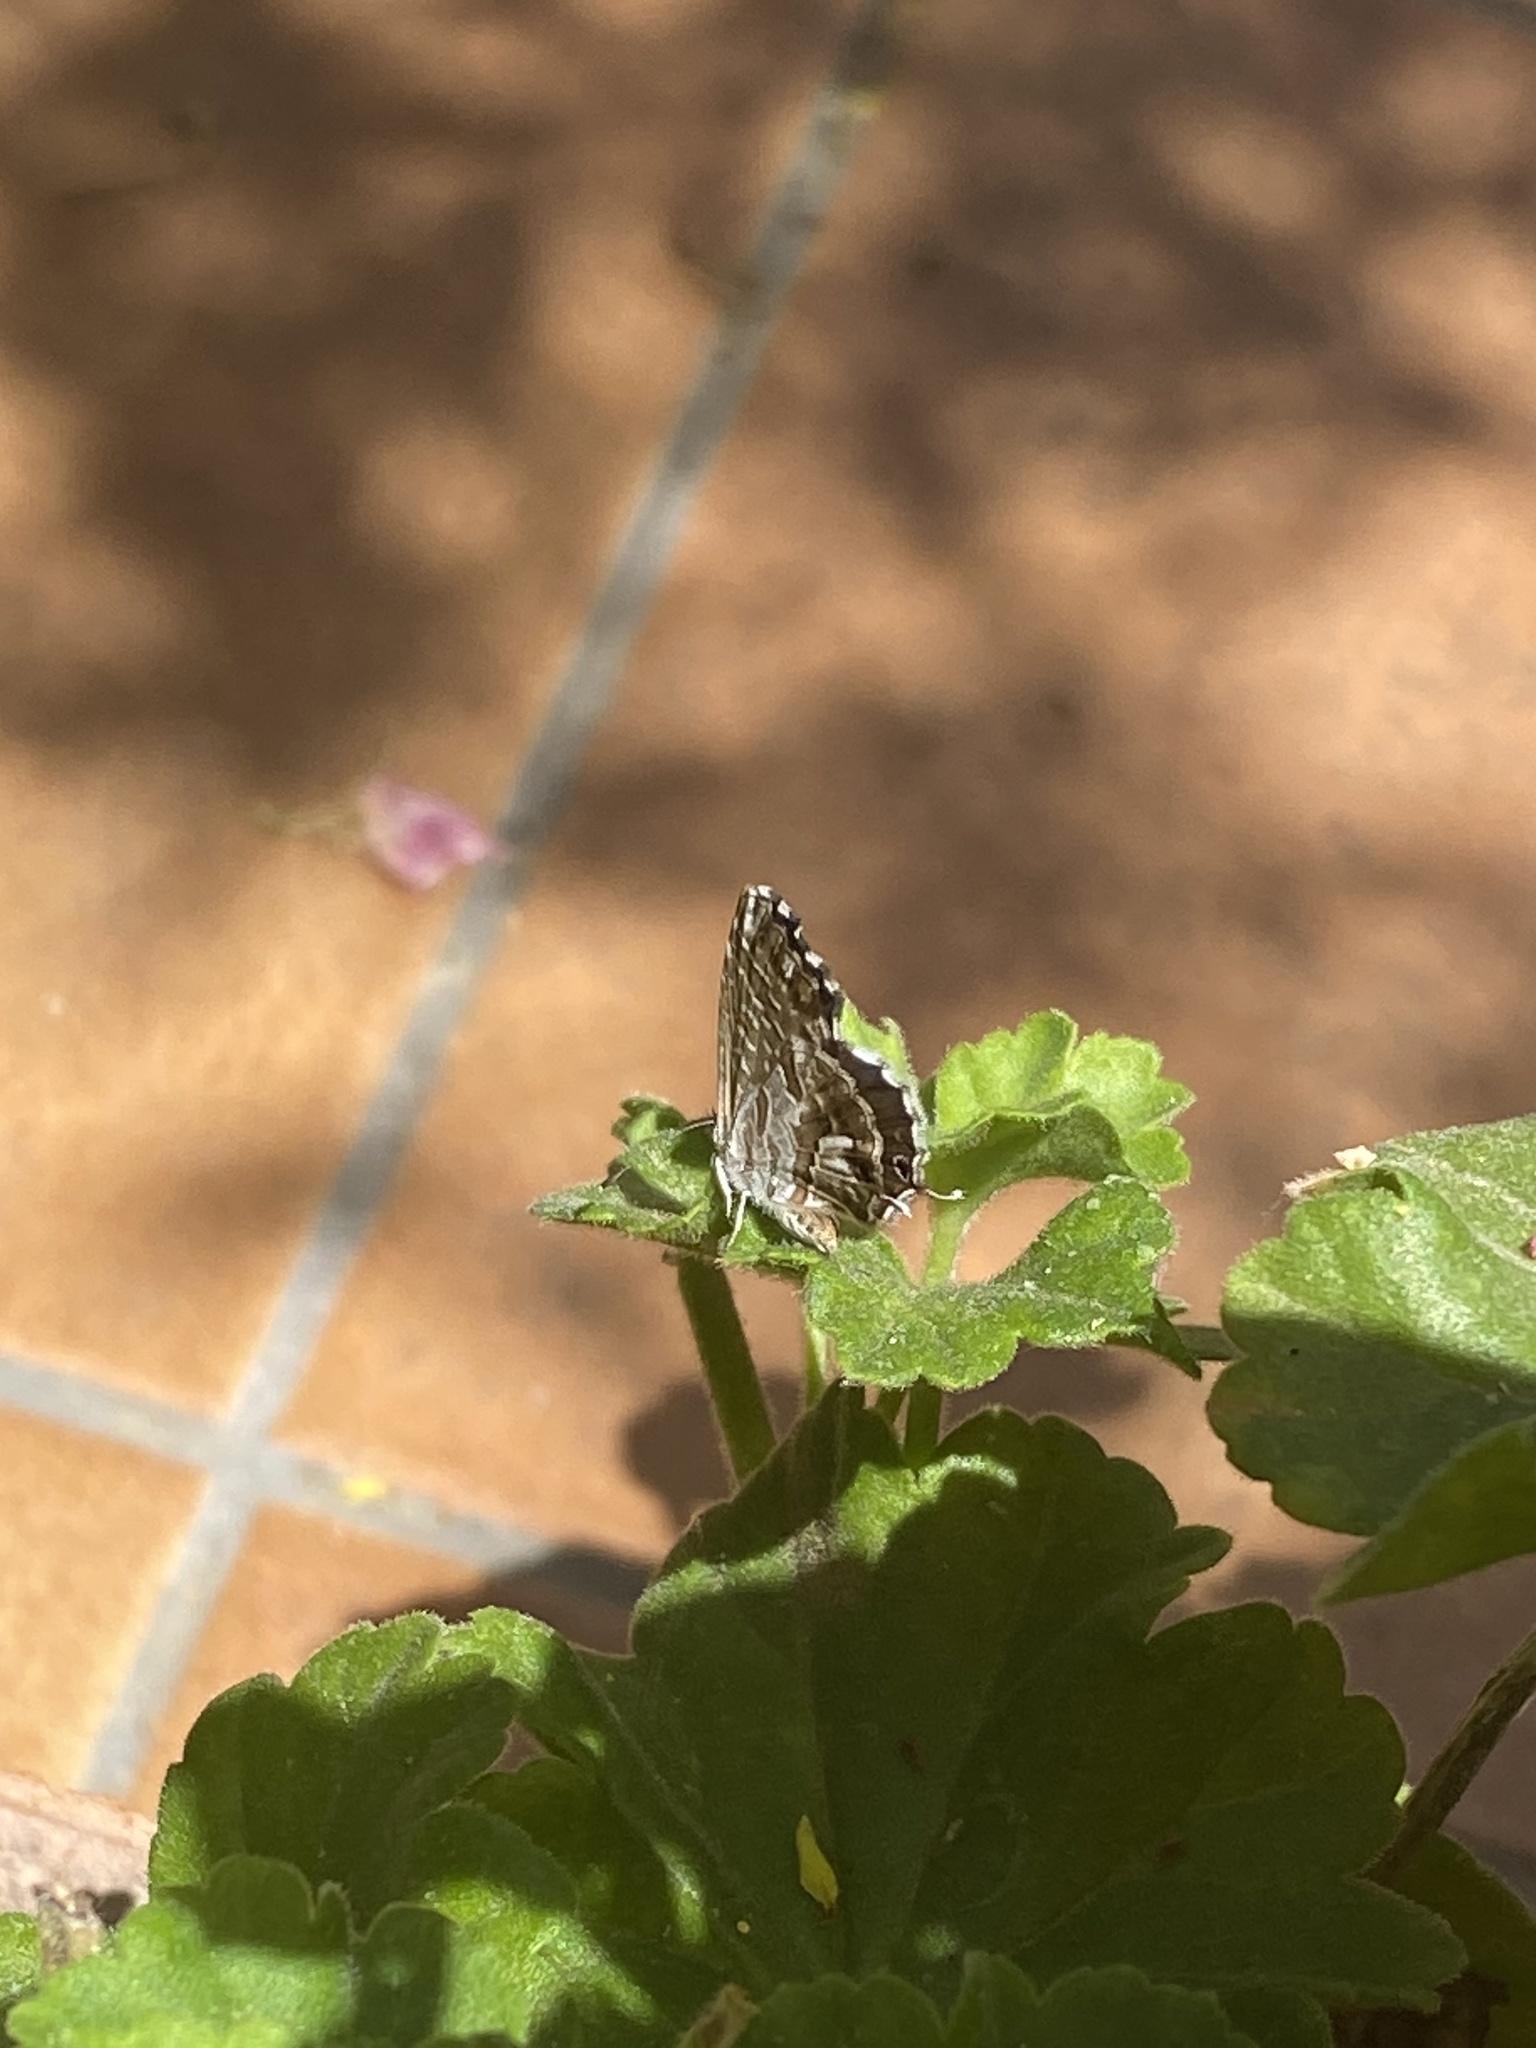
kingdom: Animalia
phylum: Arthropoda
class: Insecta
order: Lepidoptera
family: Lycaenidae
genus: Cacyreus
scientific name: Cacyreus marshalli
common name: Geranium bronze
